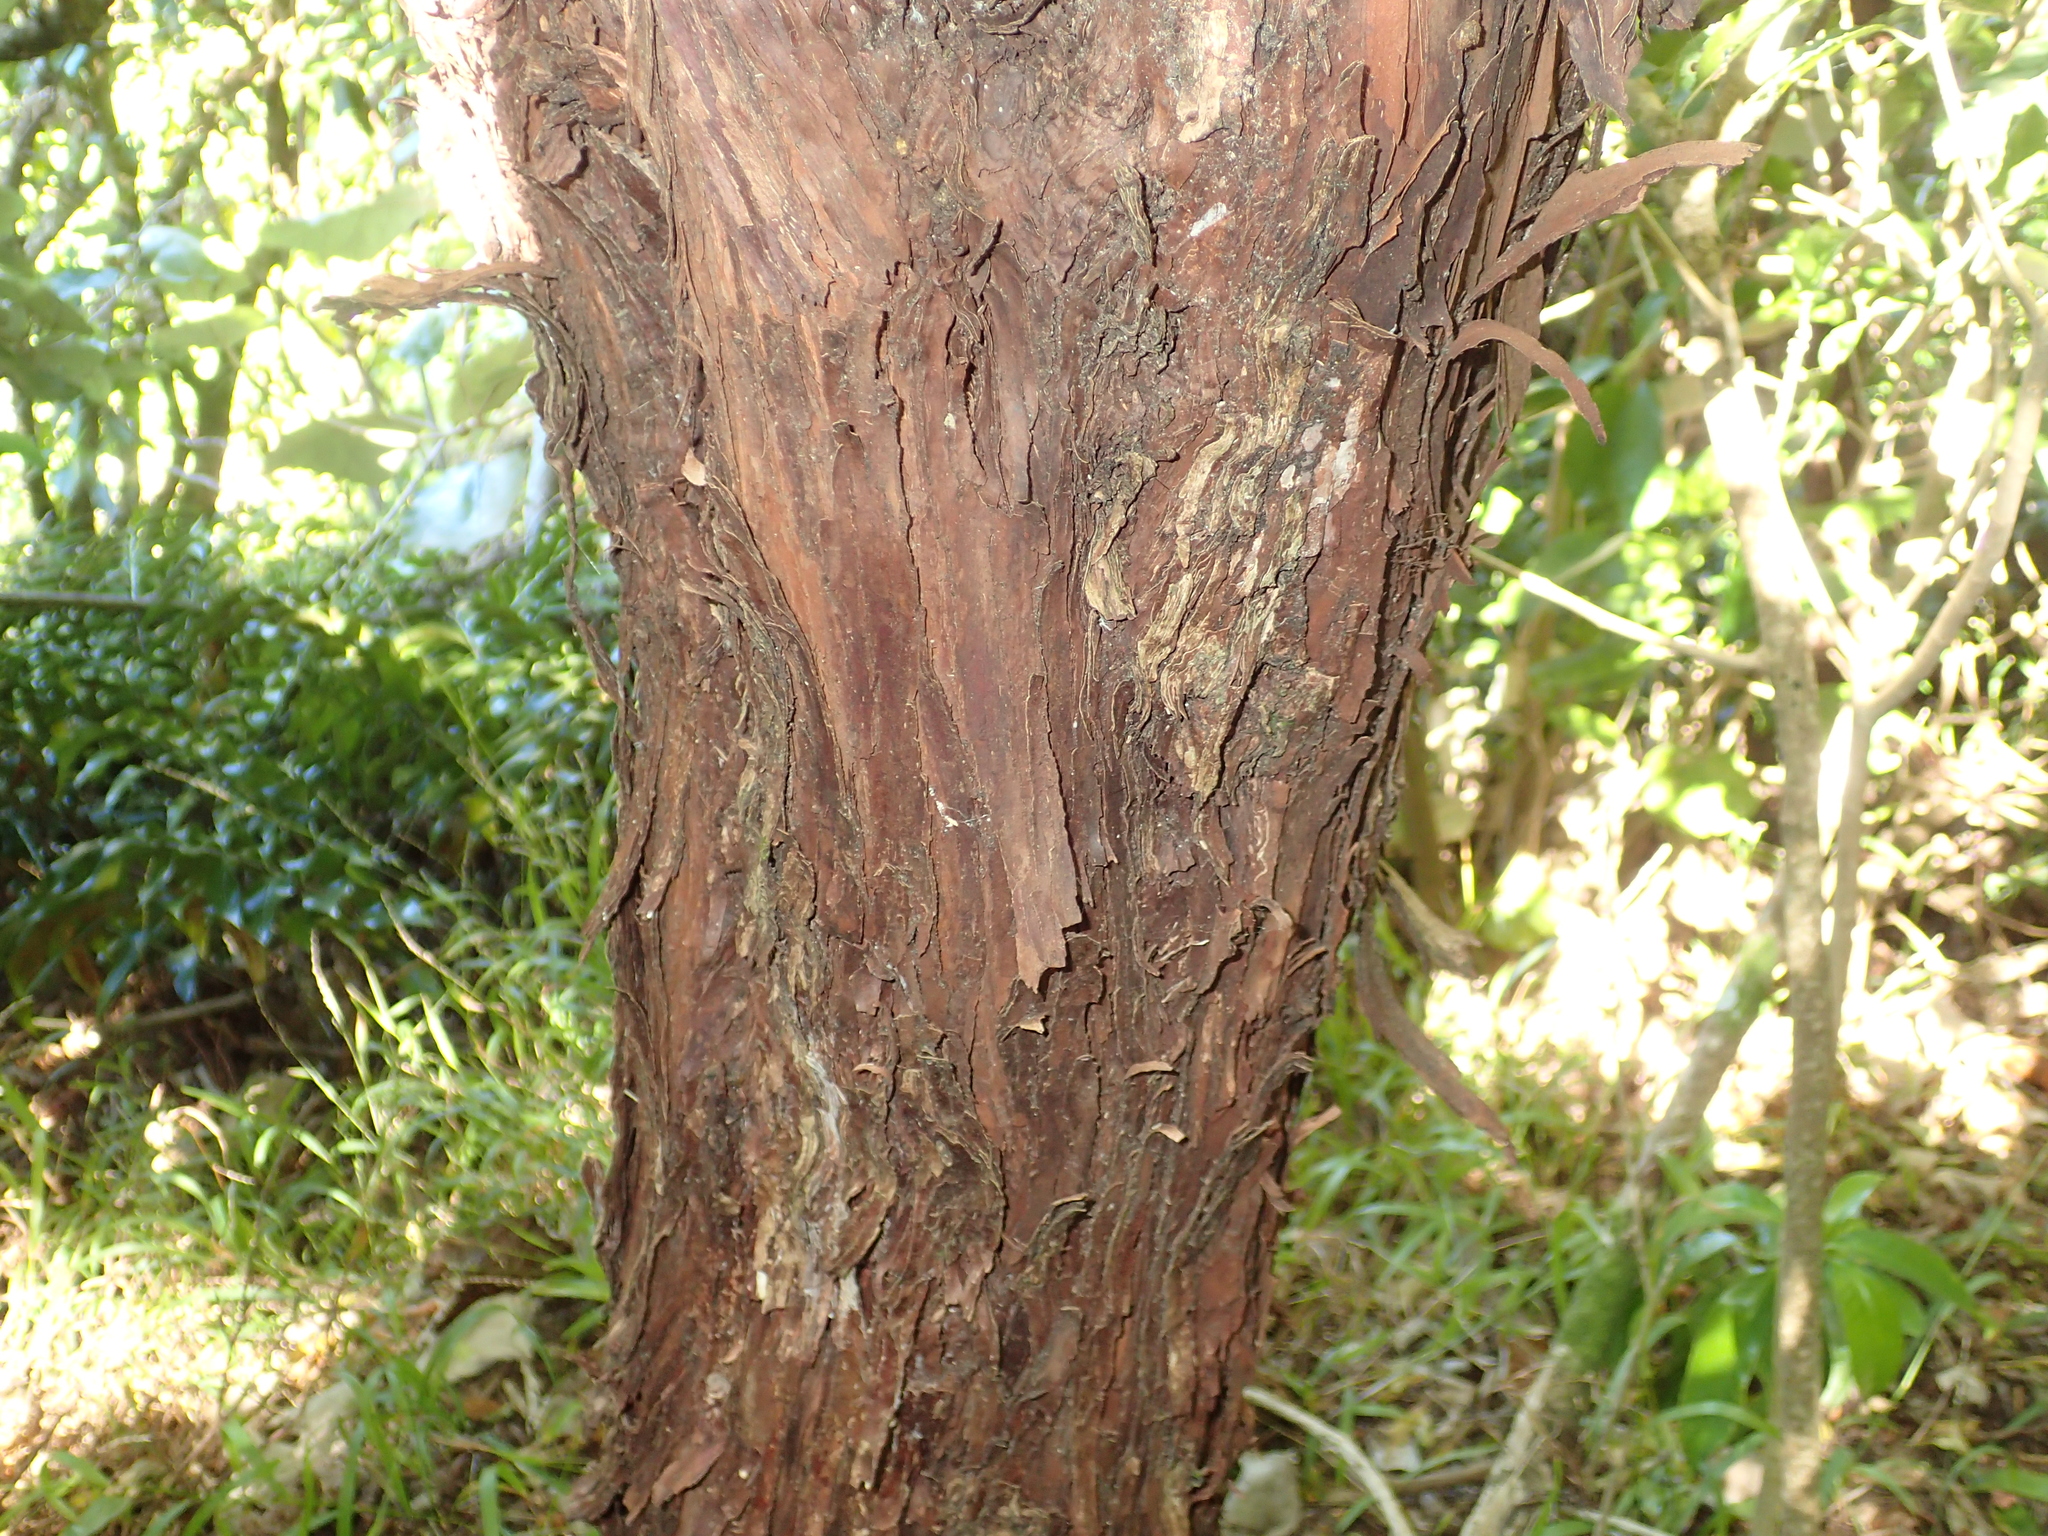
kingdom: Plantae
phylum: Tracheophyta
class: Magnoliopsida
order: Sapindales
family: Sapindaceae
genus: Dodonaea
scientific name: Dodonaea viscosa
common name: Hopbush
